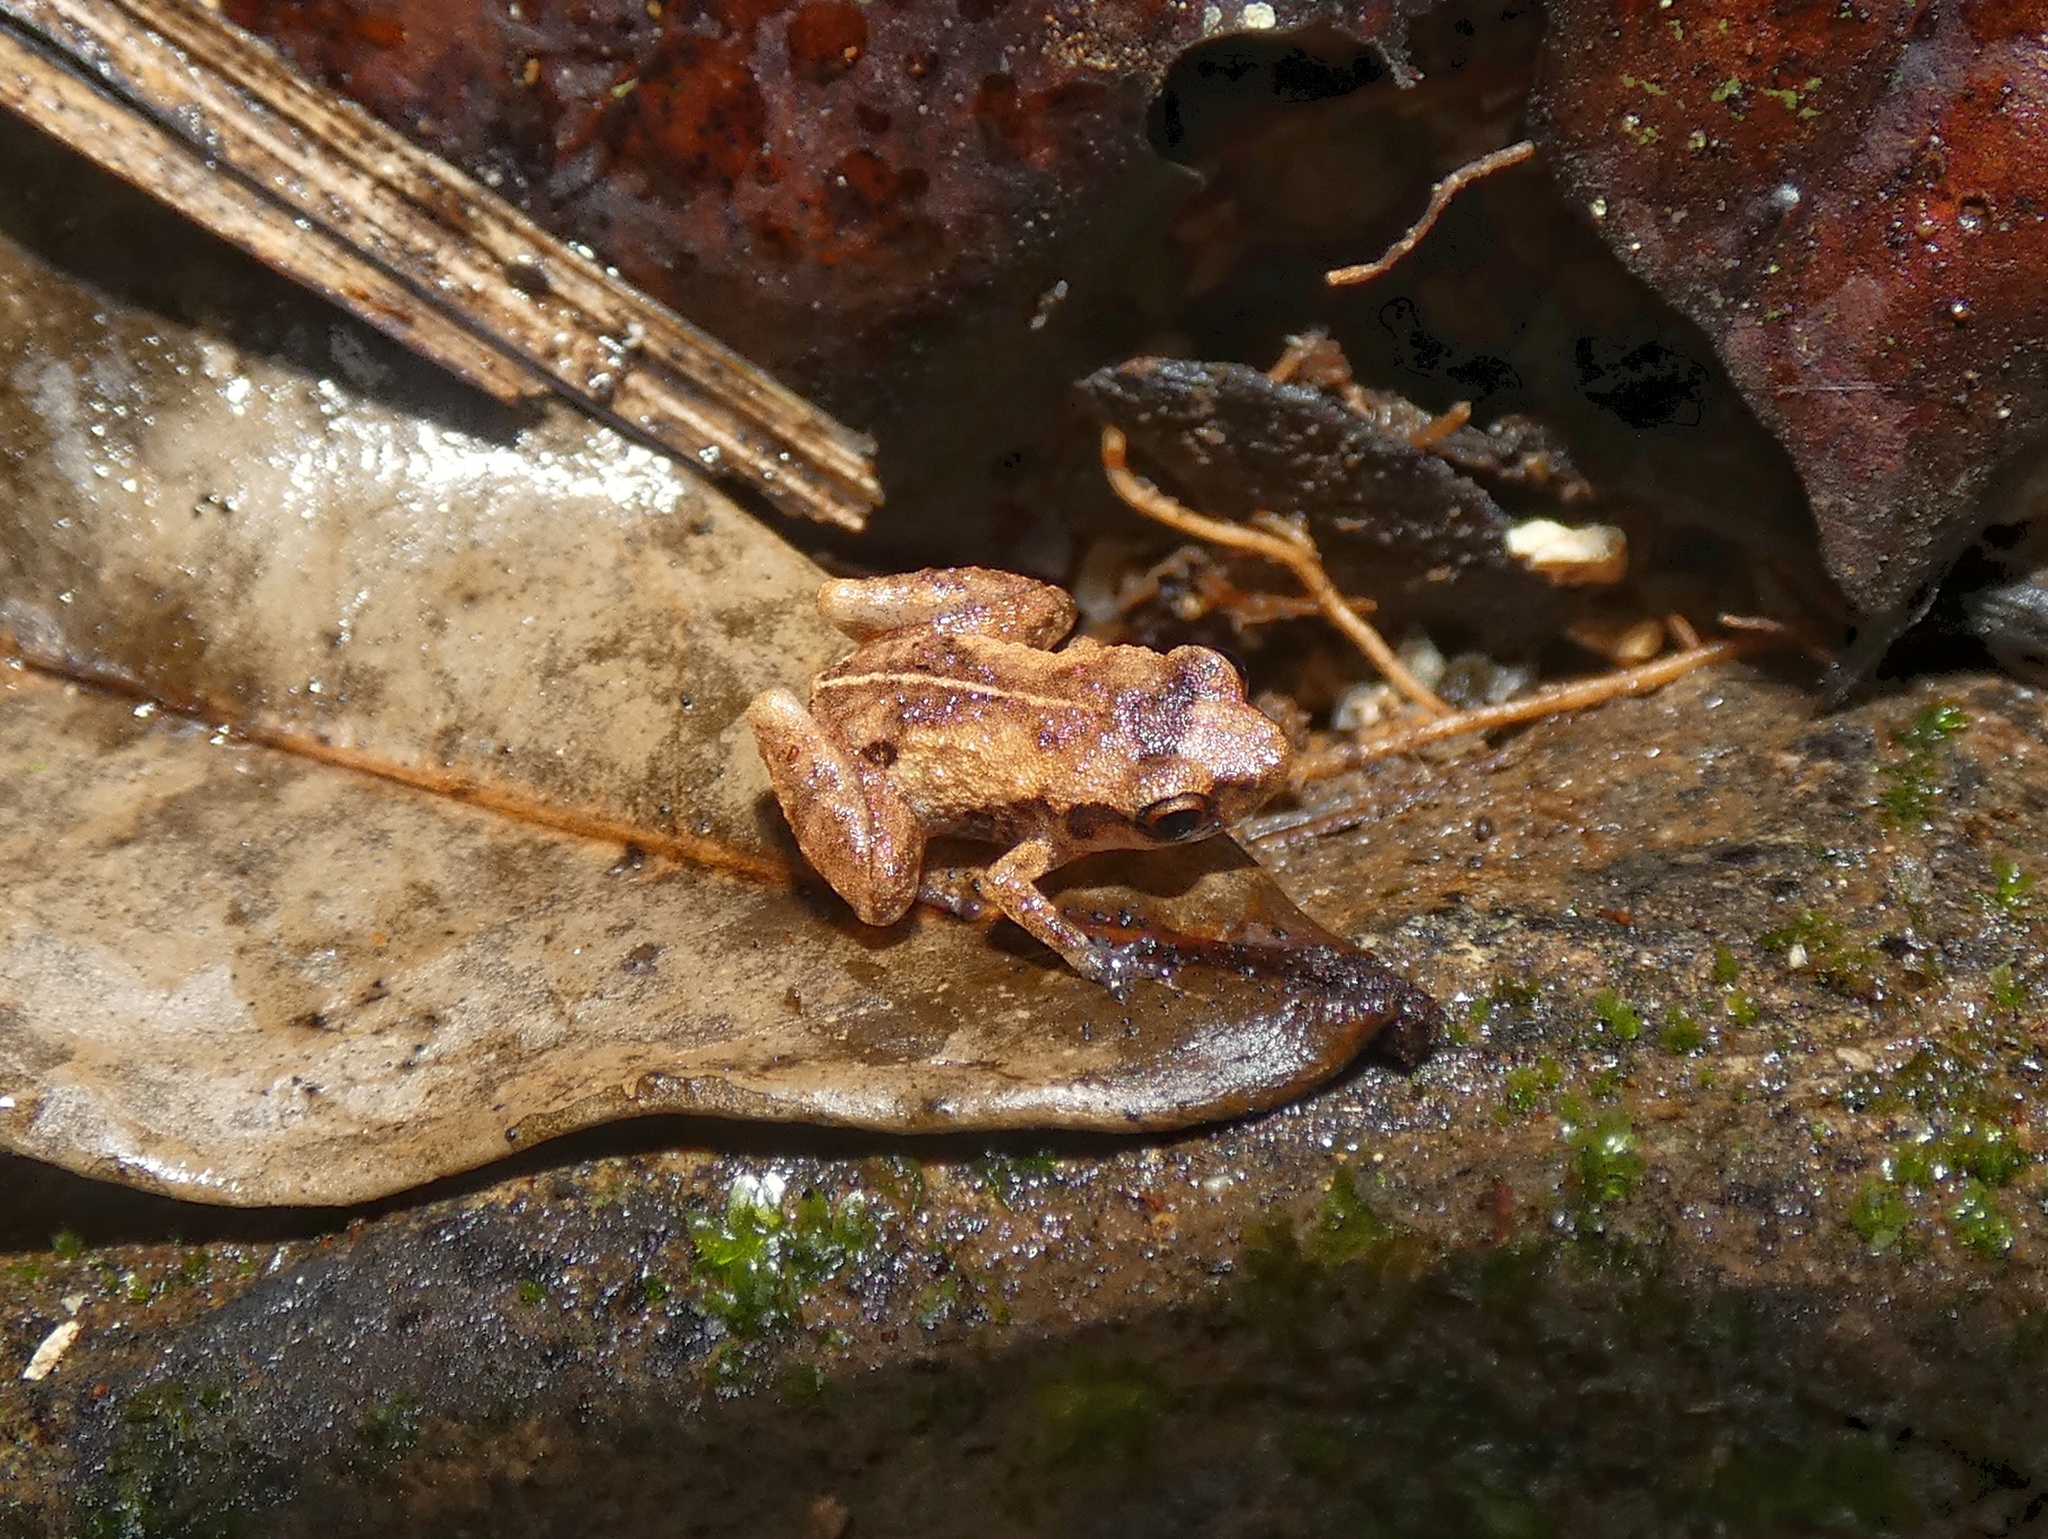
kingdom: Animalia
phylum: Chordata
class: Amphibia
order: Anura
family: Eleutherodactylidae
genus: Diasporus
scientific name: Diasporus quidditus
